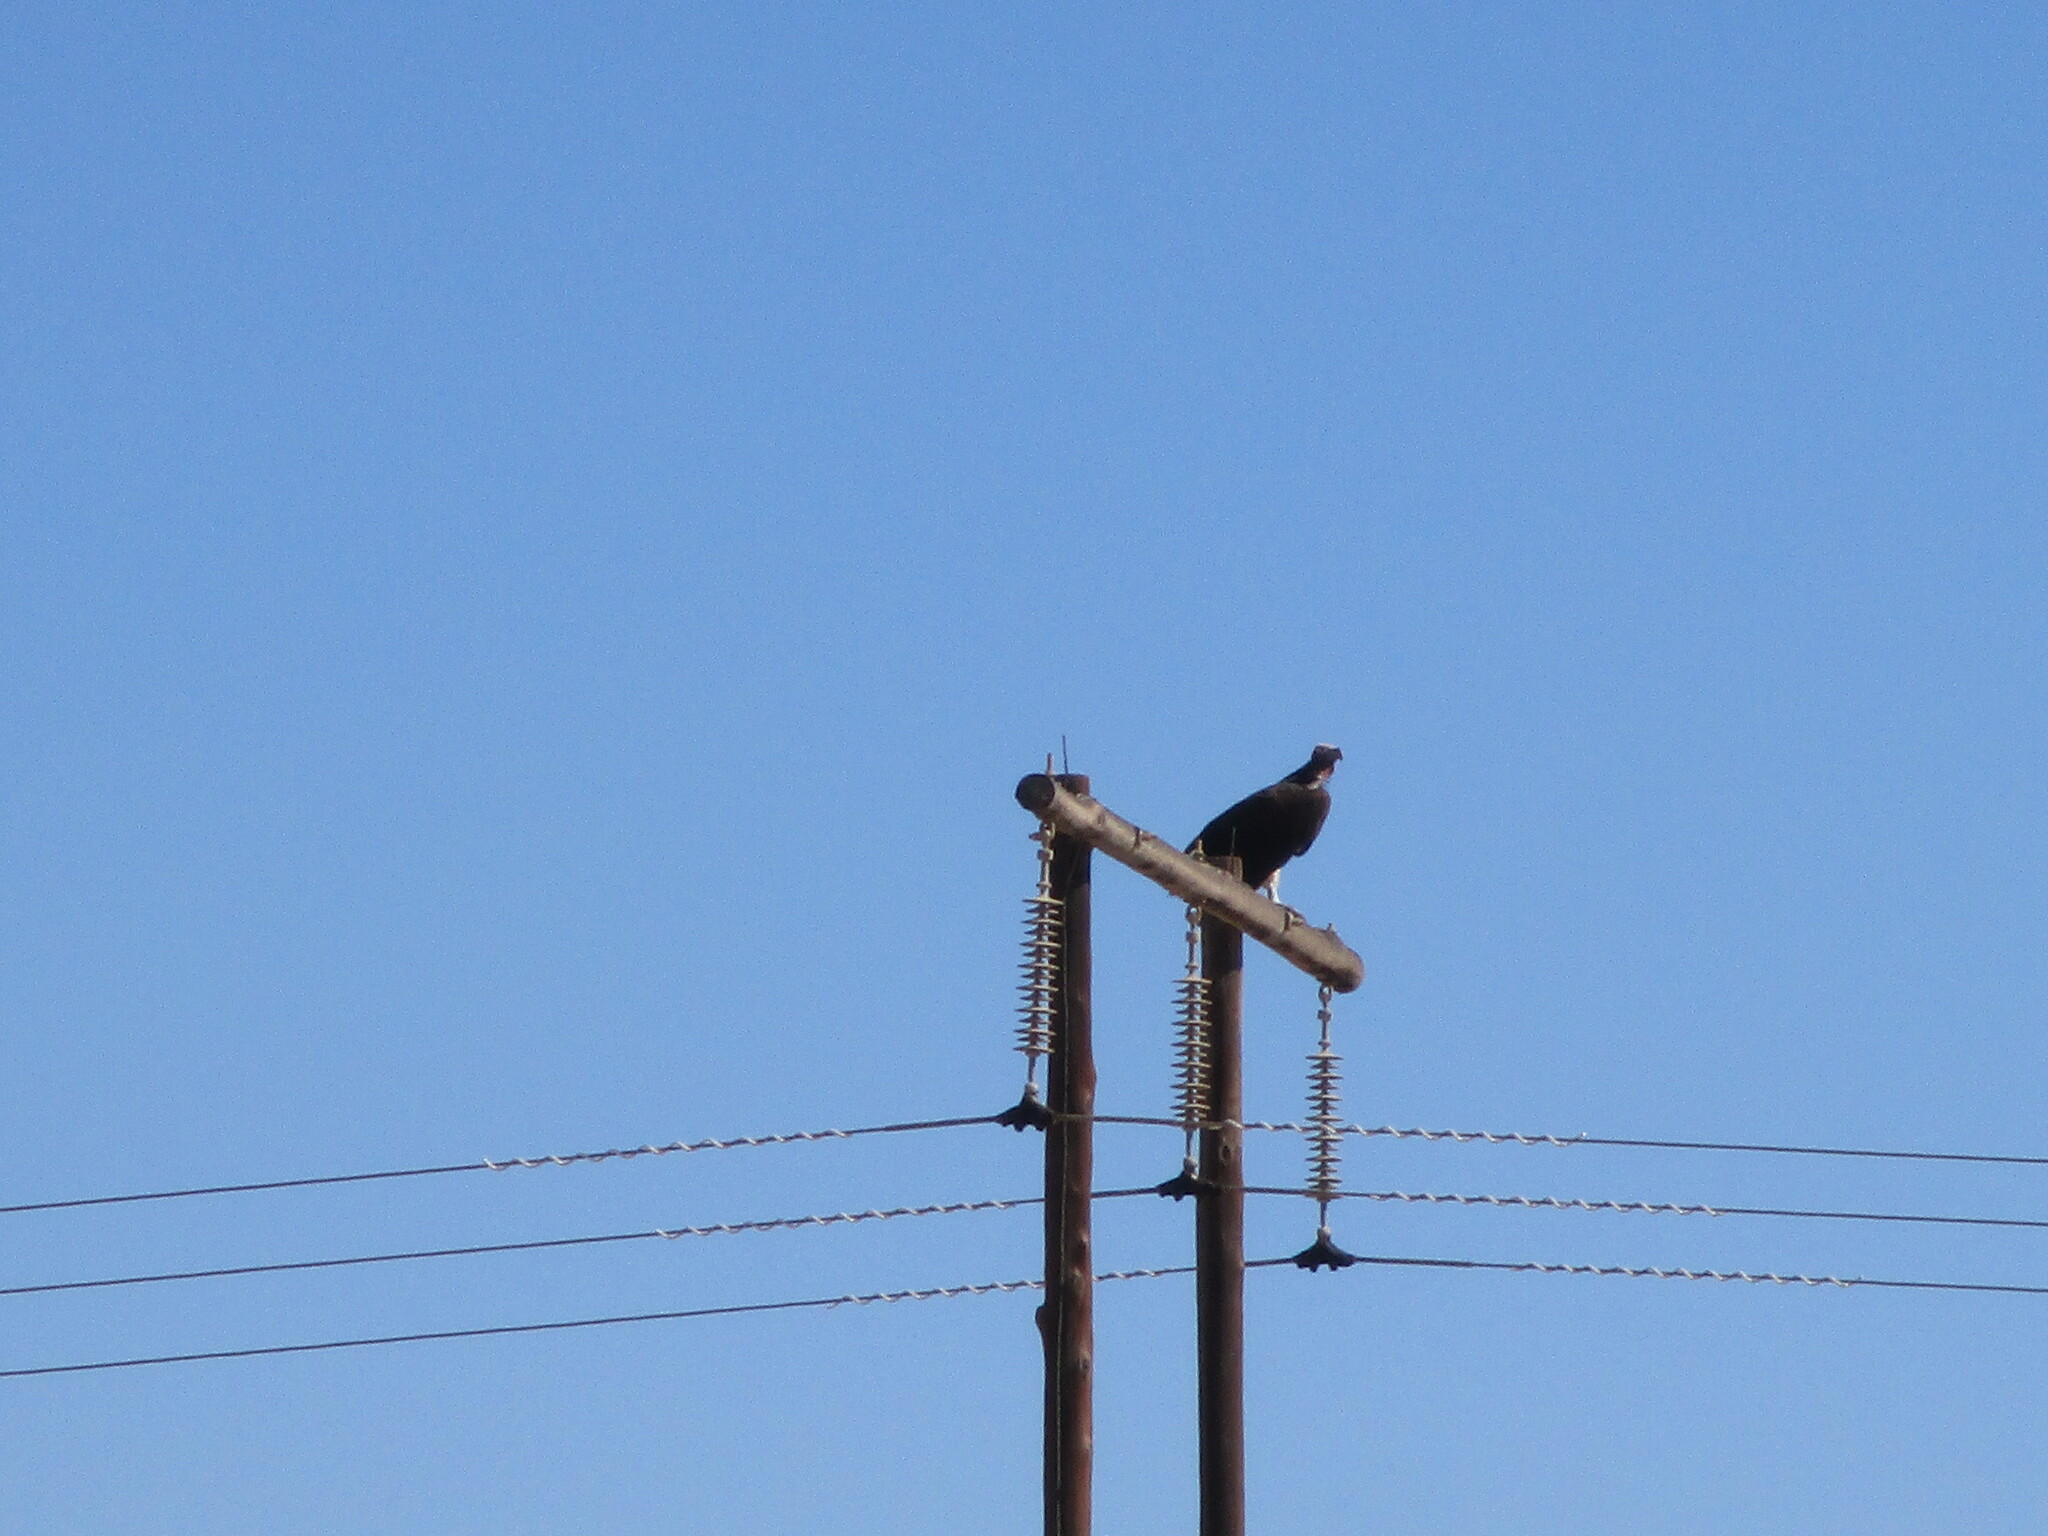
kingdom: Animalia
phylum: Chordata
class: Aves
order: Accipitriformes
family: Accipitridae
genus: Torgos
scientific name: Torgos tracheliotos
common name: Lappet-faced vulture
